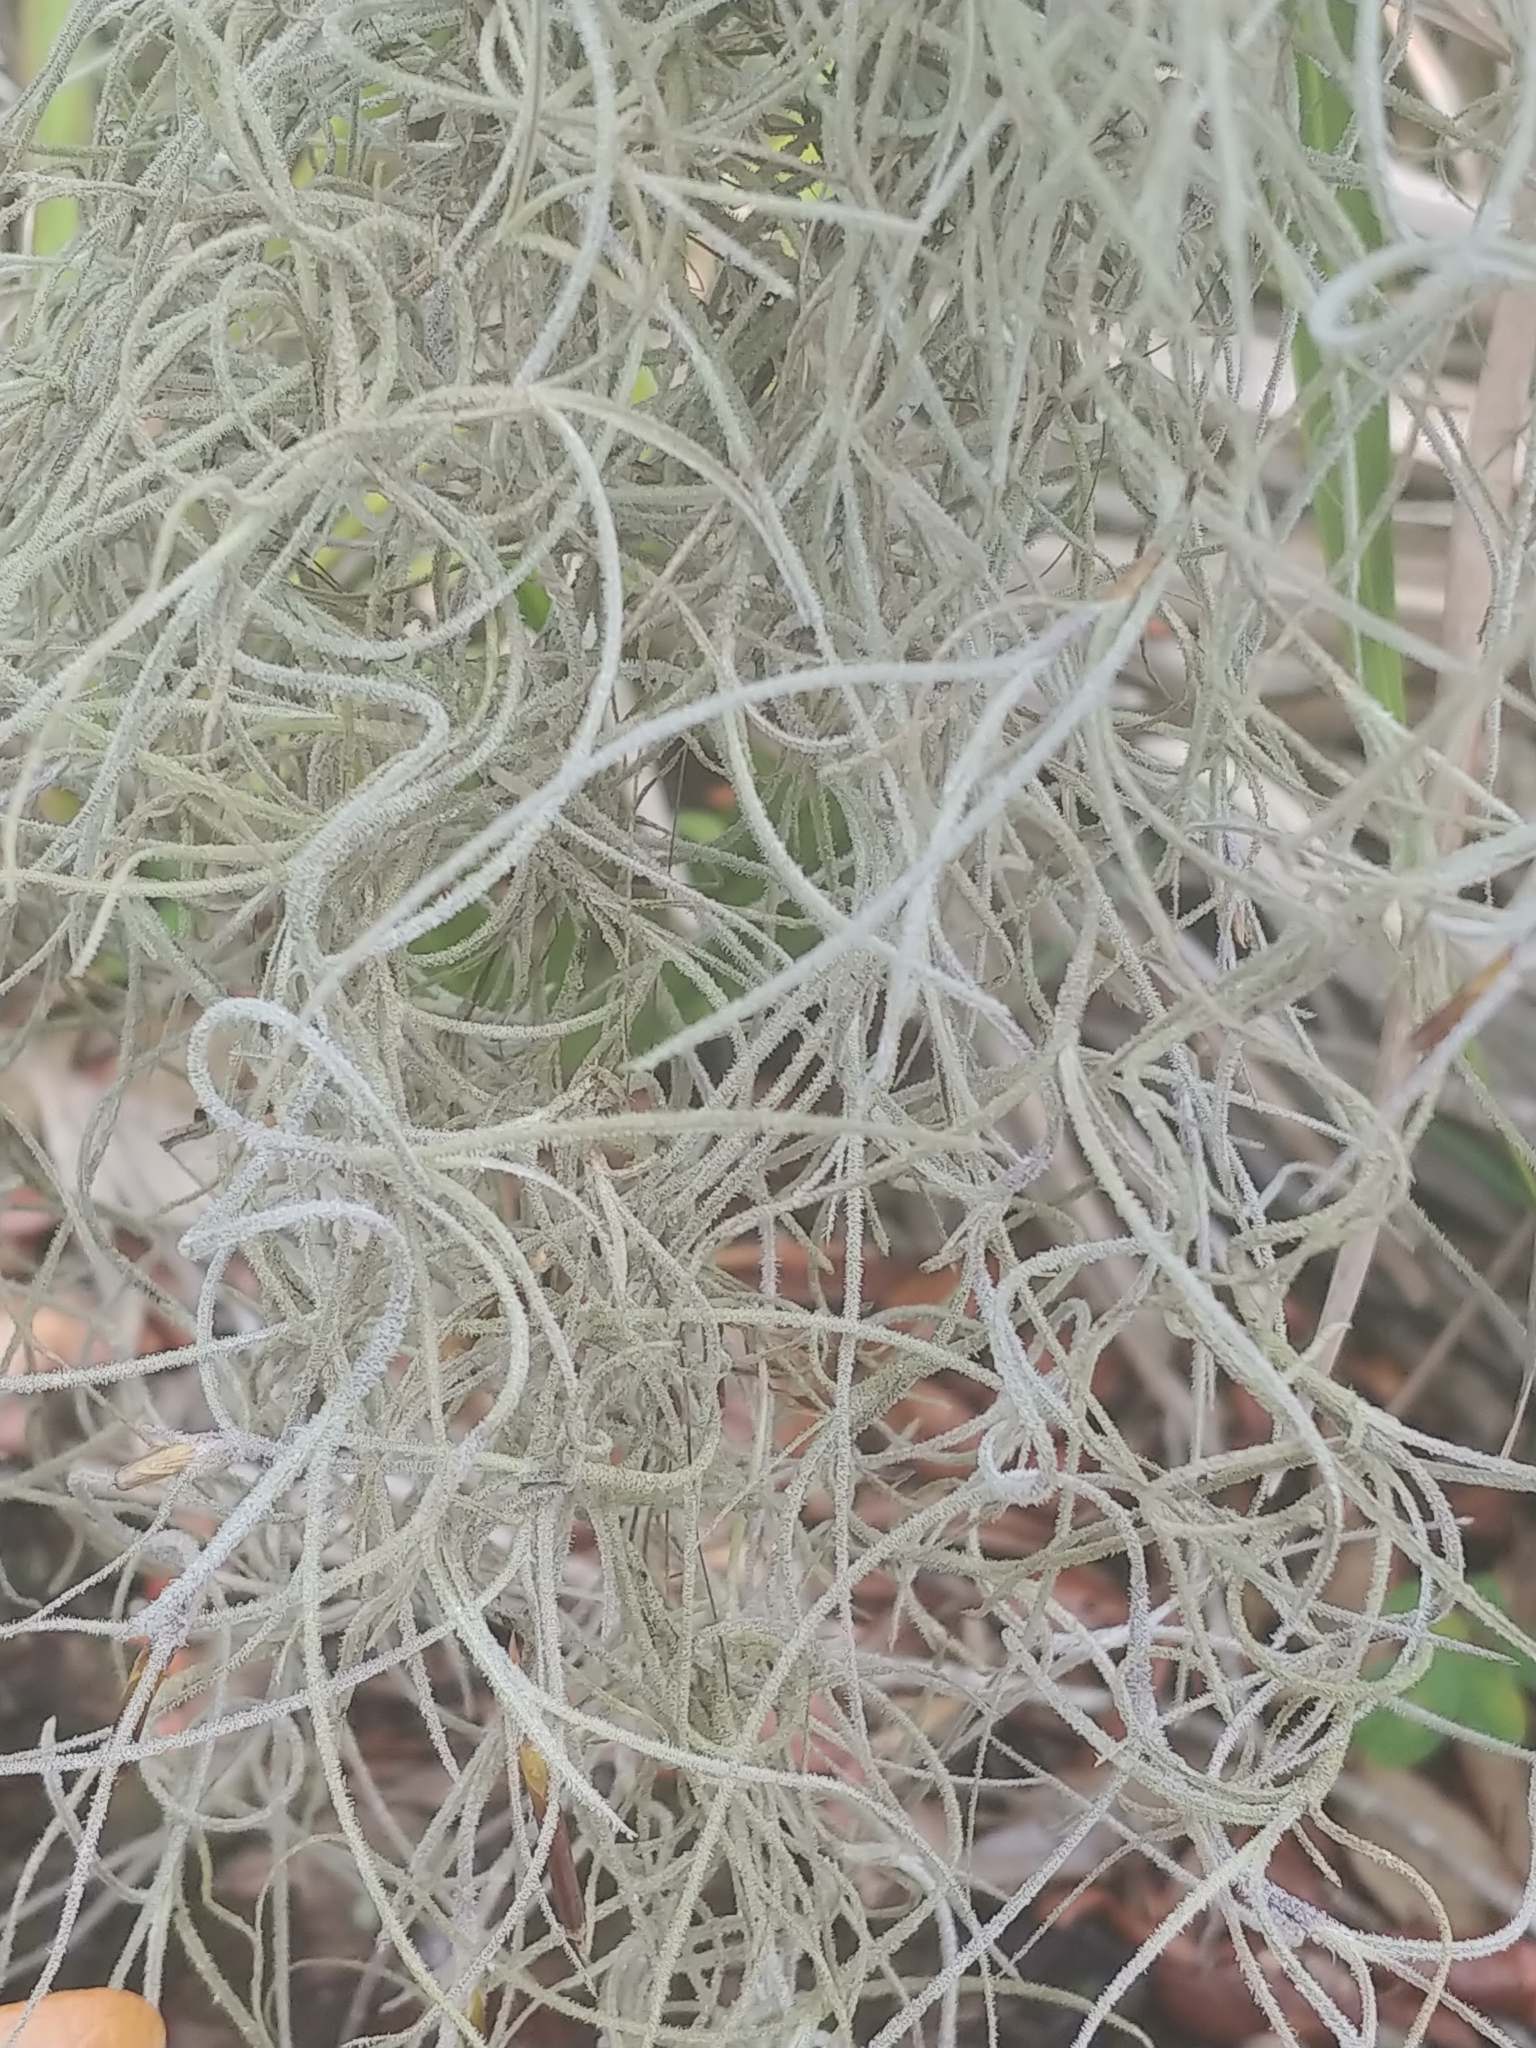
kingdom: Plantae
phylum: Tracheophyta
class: Liliopsida
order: Poales
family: Bromeliaceae
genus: Tillandsia
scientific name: Tillandsia usneoides
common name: Spanish moss
